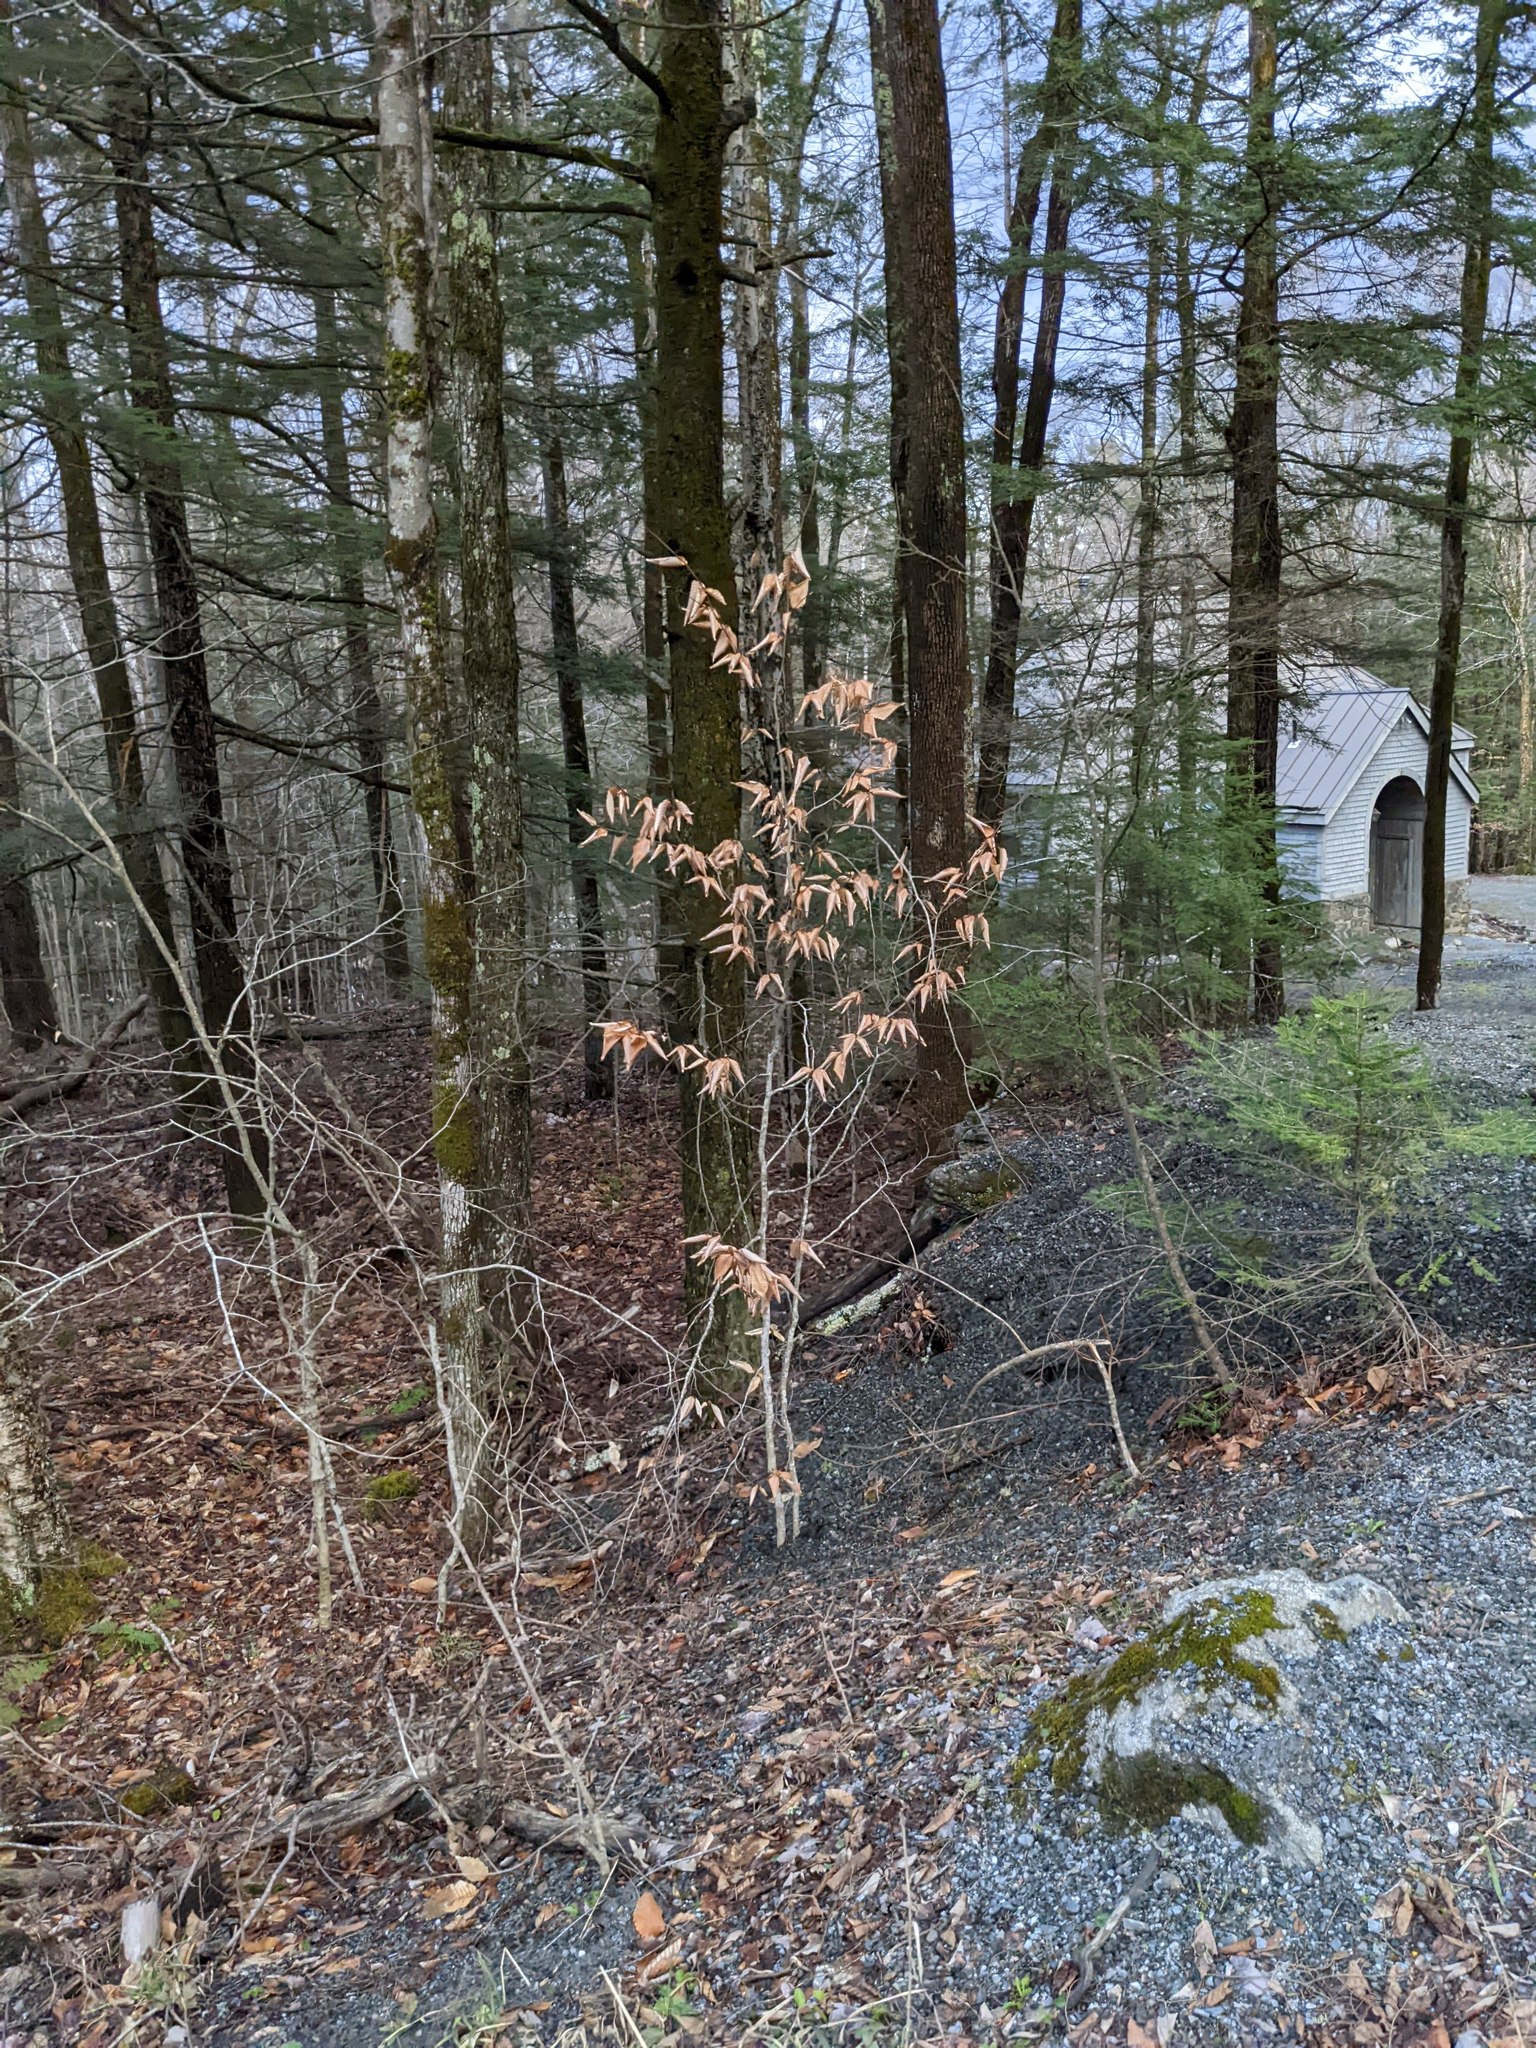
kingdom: Plantae
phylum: Tracheophyta
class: Magnoliopsida
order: Fagales
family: Fagaceae
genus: Fagus
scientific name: Fagus grandifolia
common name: American beech
